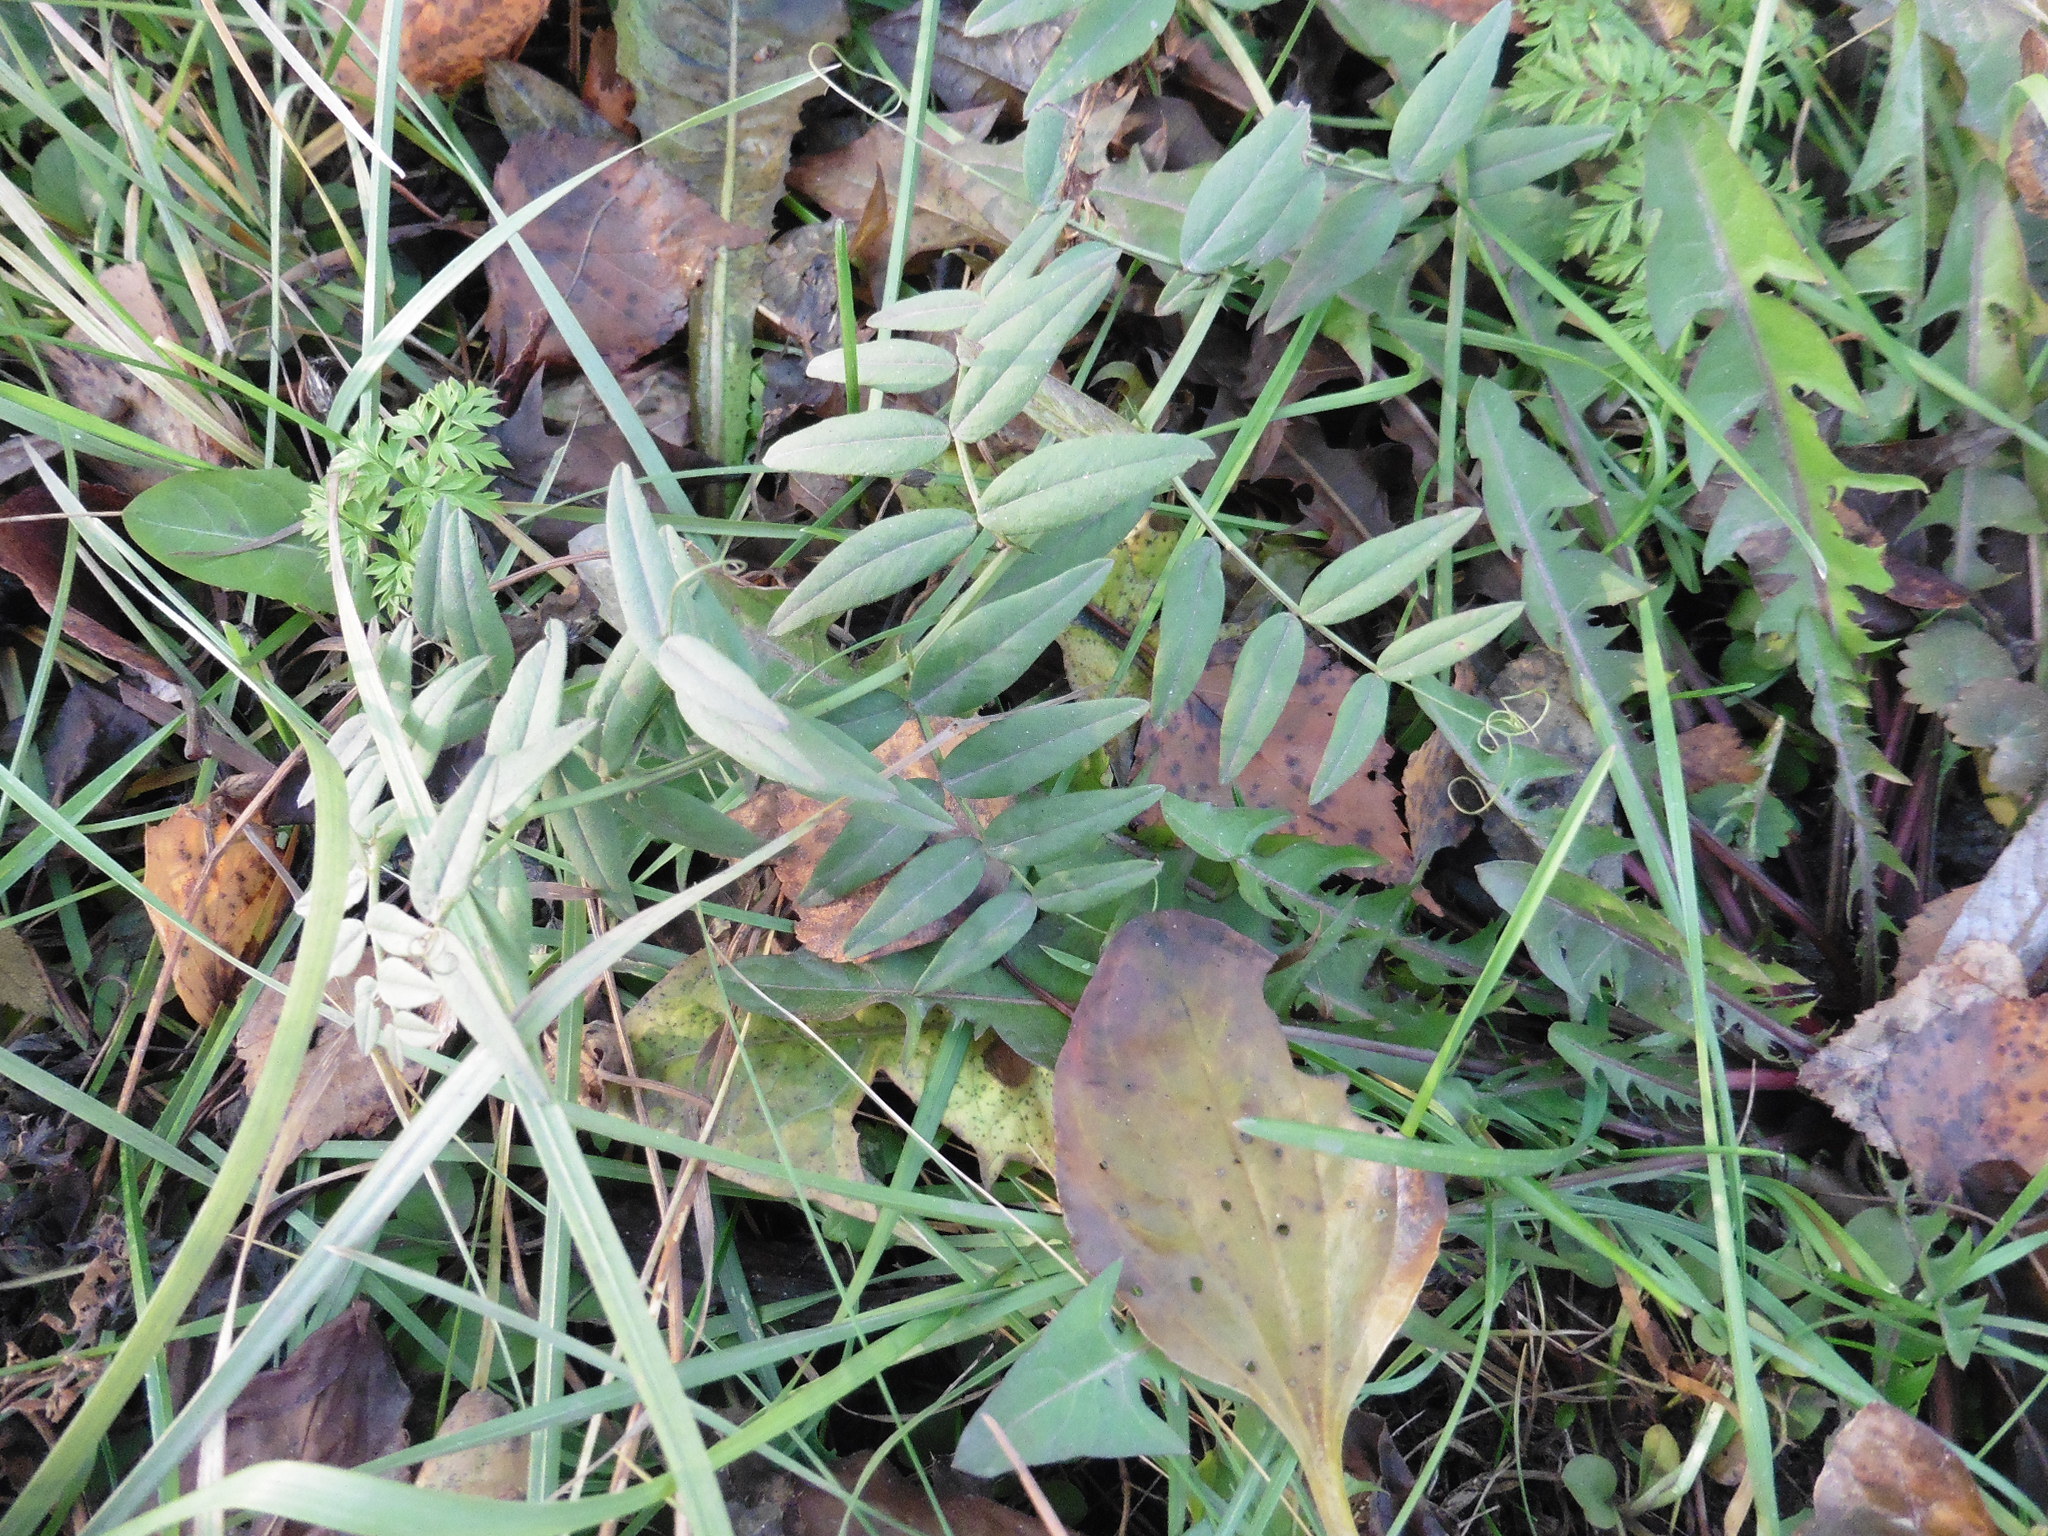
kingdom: Plantae
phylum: Tracheophyta
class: Magnoliopsida
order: Fabales
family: Fabaceae
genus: Vicia
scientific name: Vicia sepium
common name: Bush vetch
